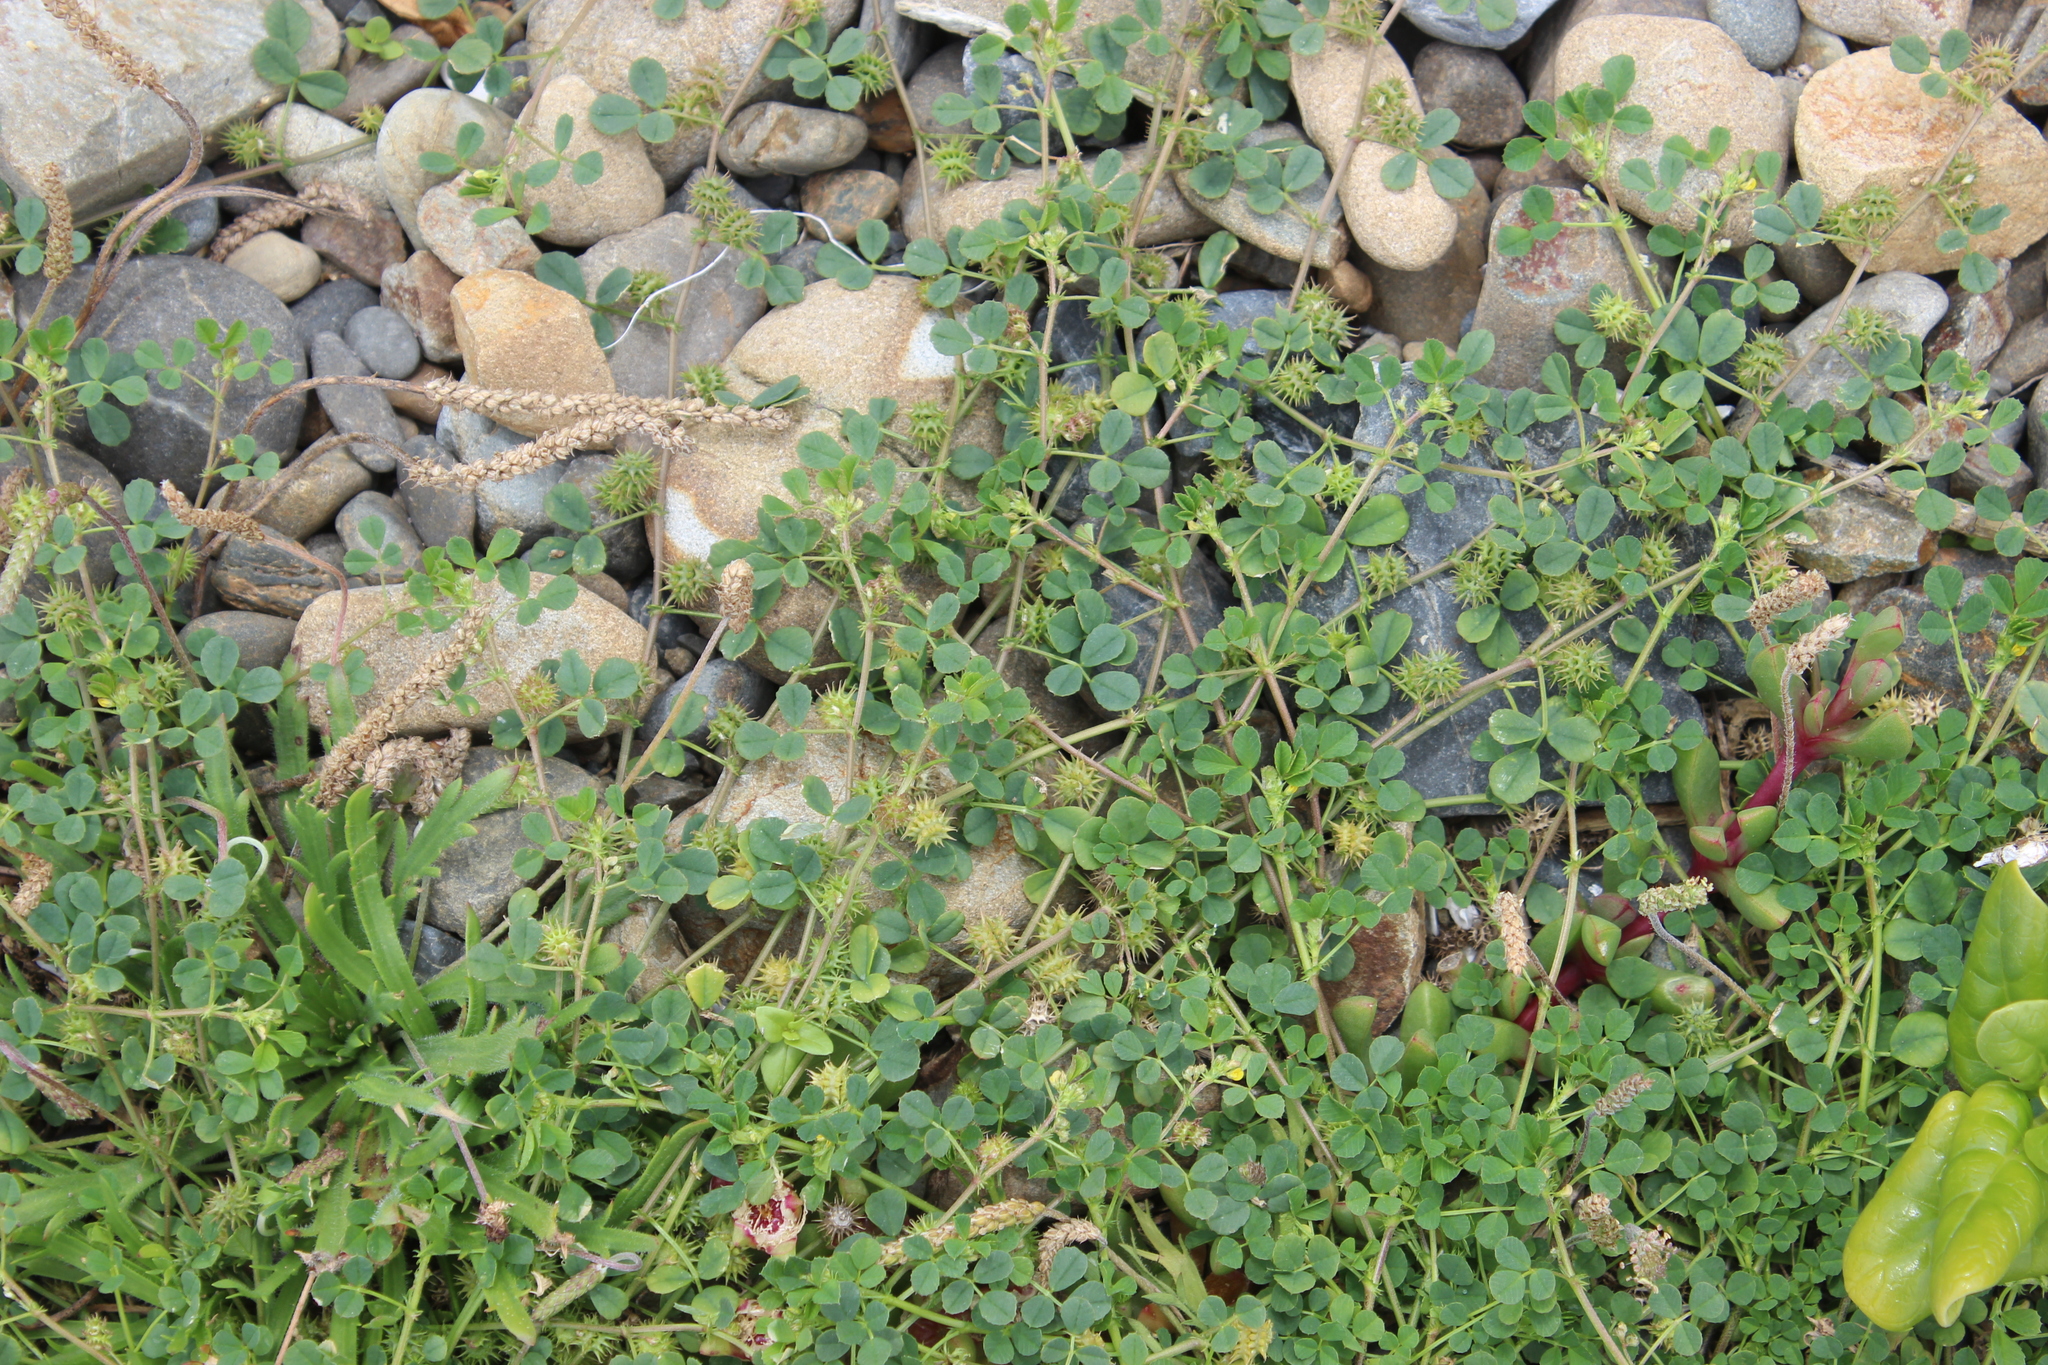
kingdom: Plantae
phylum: Tracheophyta
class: Magnoliopsida
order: Fabales
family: Fabaceae
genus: Medicago
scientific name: Medicago polymorpha
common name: Burclover
